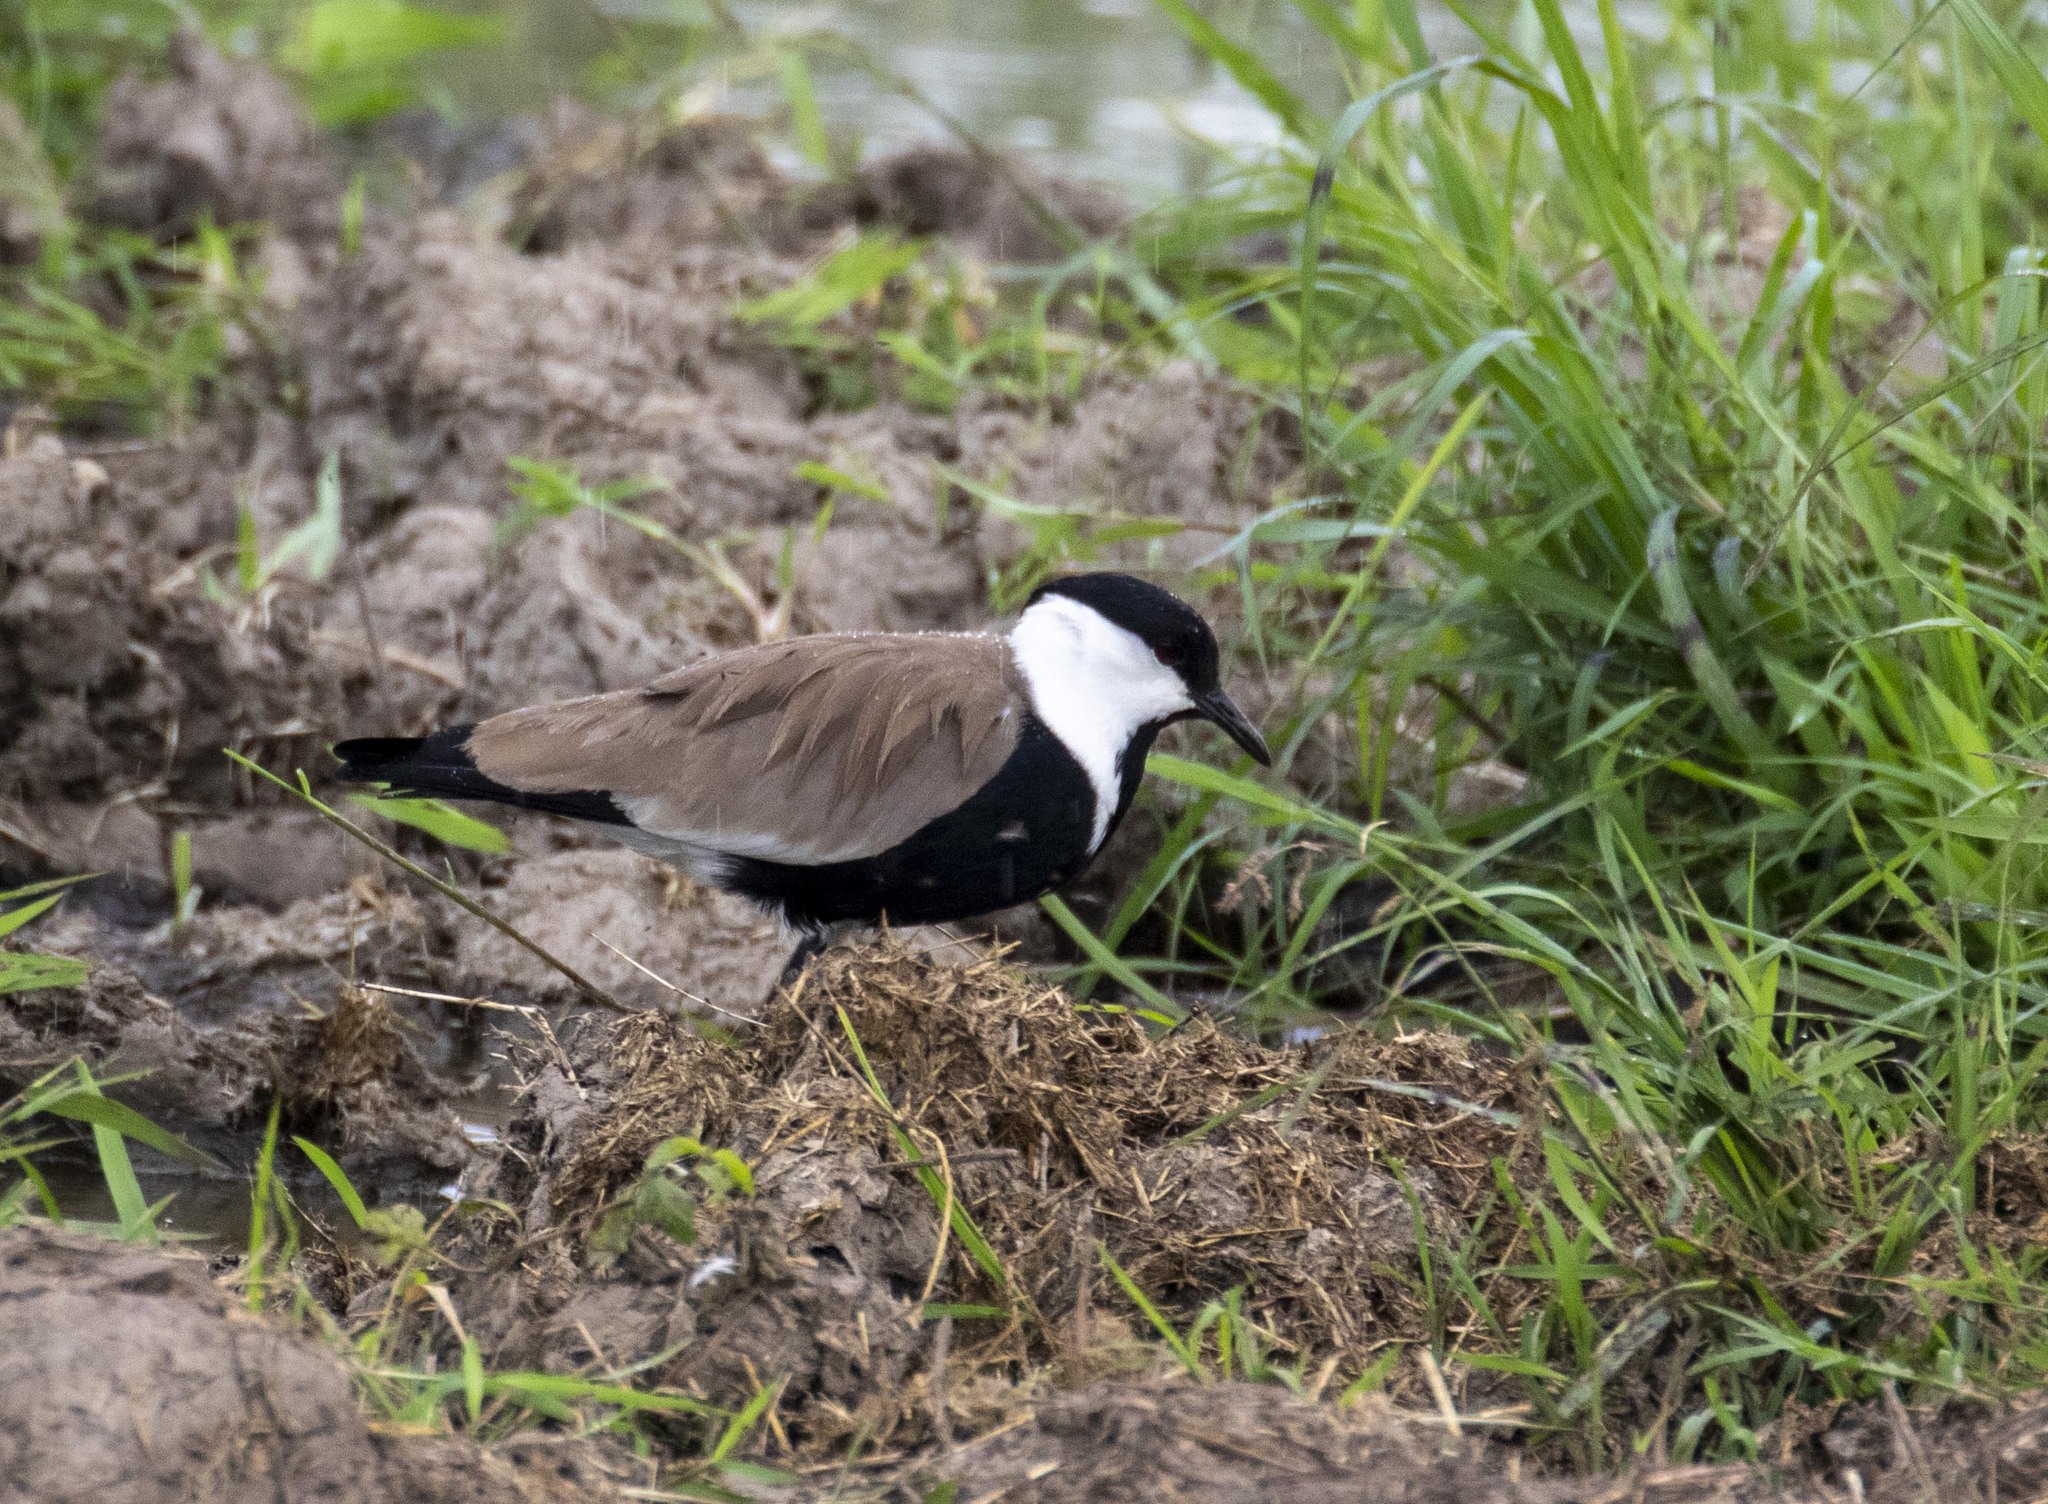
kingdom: Animalia
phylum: Chordata
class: Aves
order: Charadriiformes
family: Charadriidae
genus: Vanellus
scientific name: Vanellus spinosus
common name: Spur-winged lapwing
